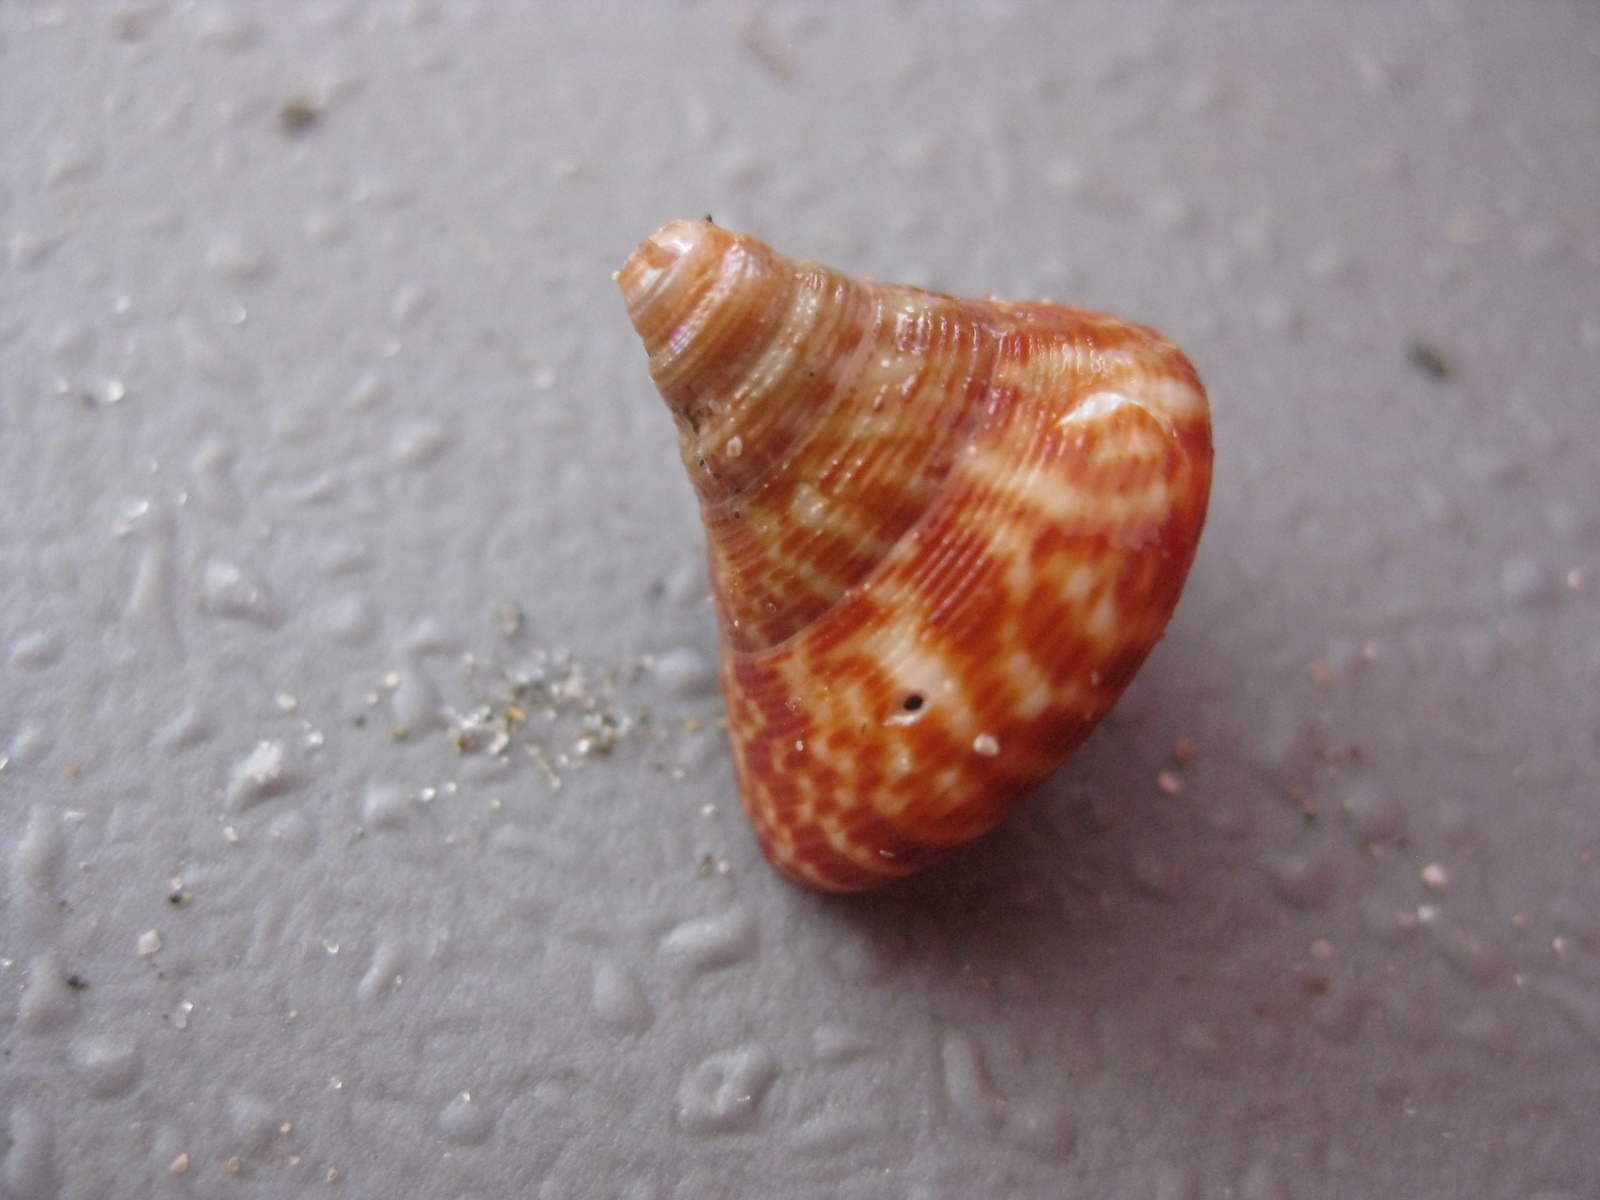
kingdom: Animalia
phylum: Mollusca
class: Gastropoda
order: Trochida
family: Calliostomatidae
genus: Maurea
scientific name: Maurea tigris
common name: Tiger maurea
